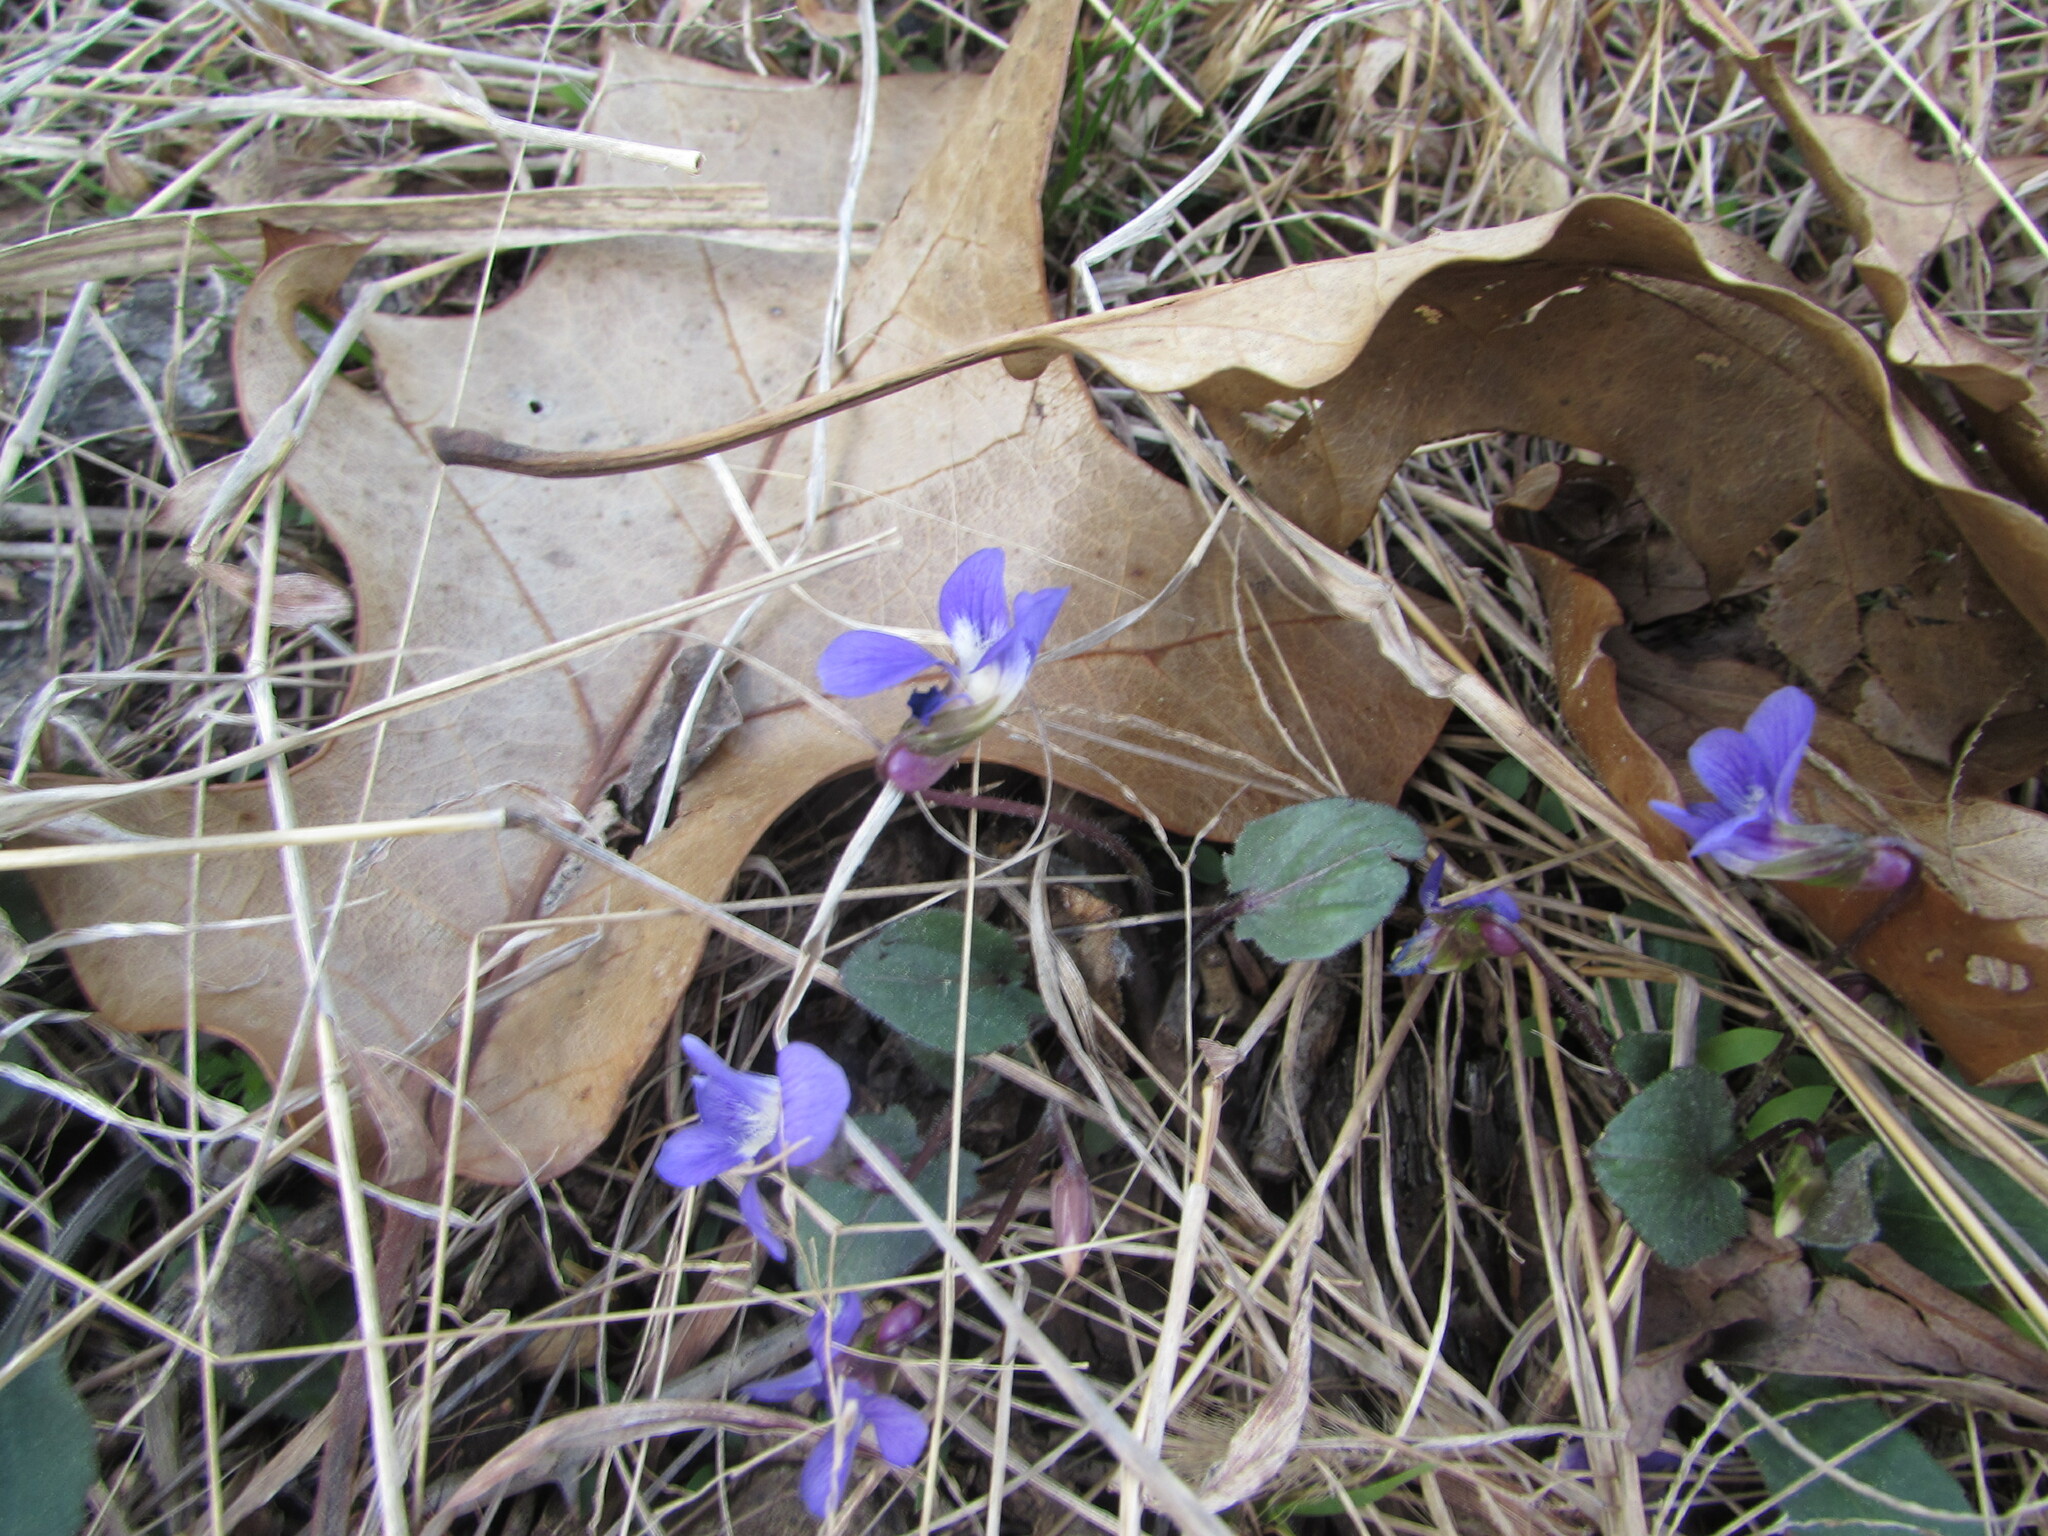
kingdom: Plantae
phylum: Tracheophyta
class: Magnoliopsida
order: Malpighiales
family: Violaceae
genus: Viola
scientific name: Viola sagittata
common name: Arrowhead violet
